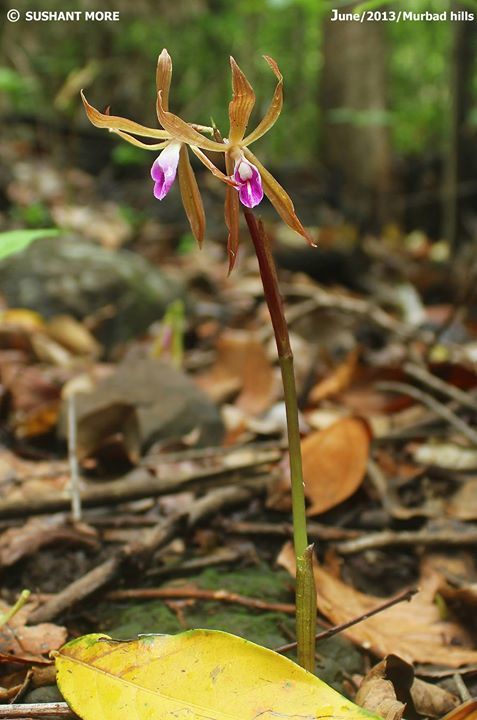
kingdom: Plantae
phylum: Tracheophyta
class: Liliopsida
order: Asparagales
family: Orchidaceae
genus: Nervilia
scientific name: Nervilia plicata
